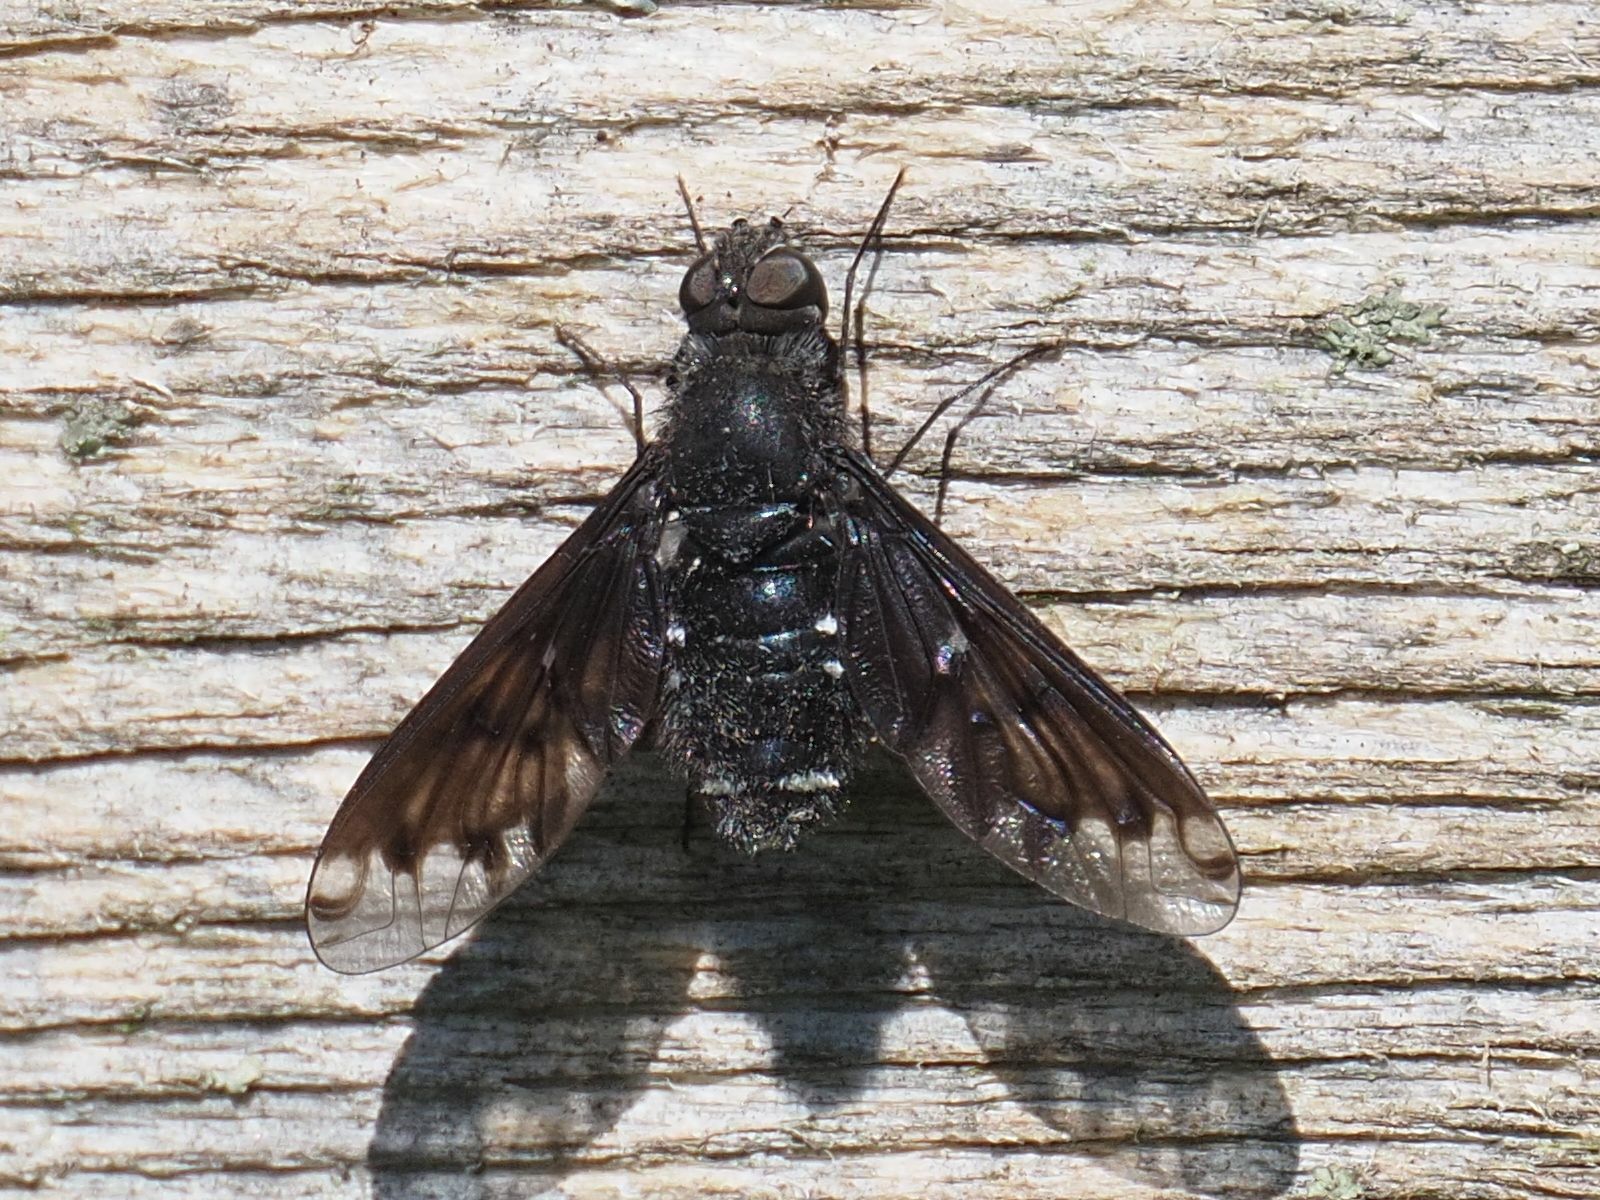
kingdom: Animalia
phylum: Arthropoda
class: Insecta
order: Diptera
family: Bombyliidae
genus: Anthrax
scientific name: Anthrax anthrax
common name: Anthracite bee-fly
